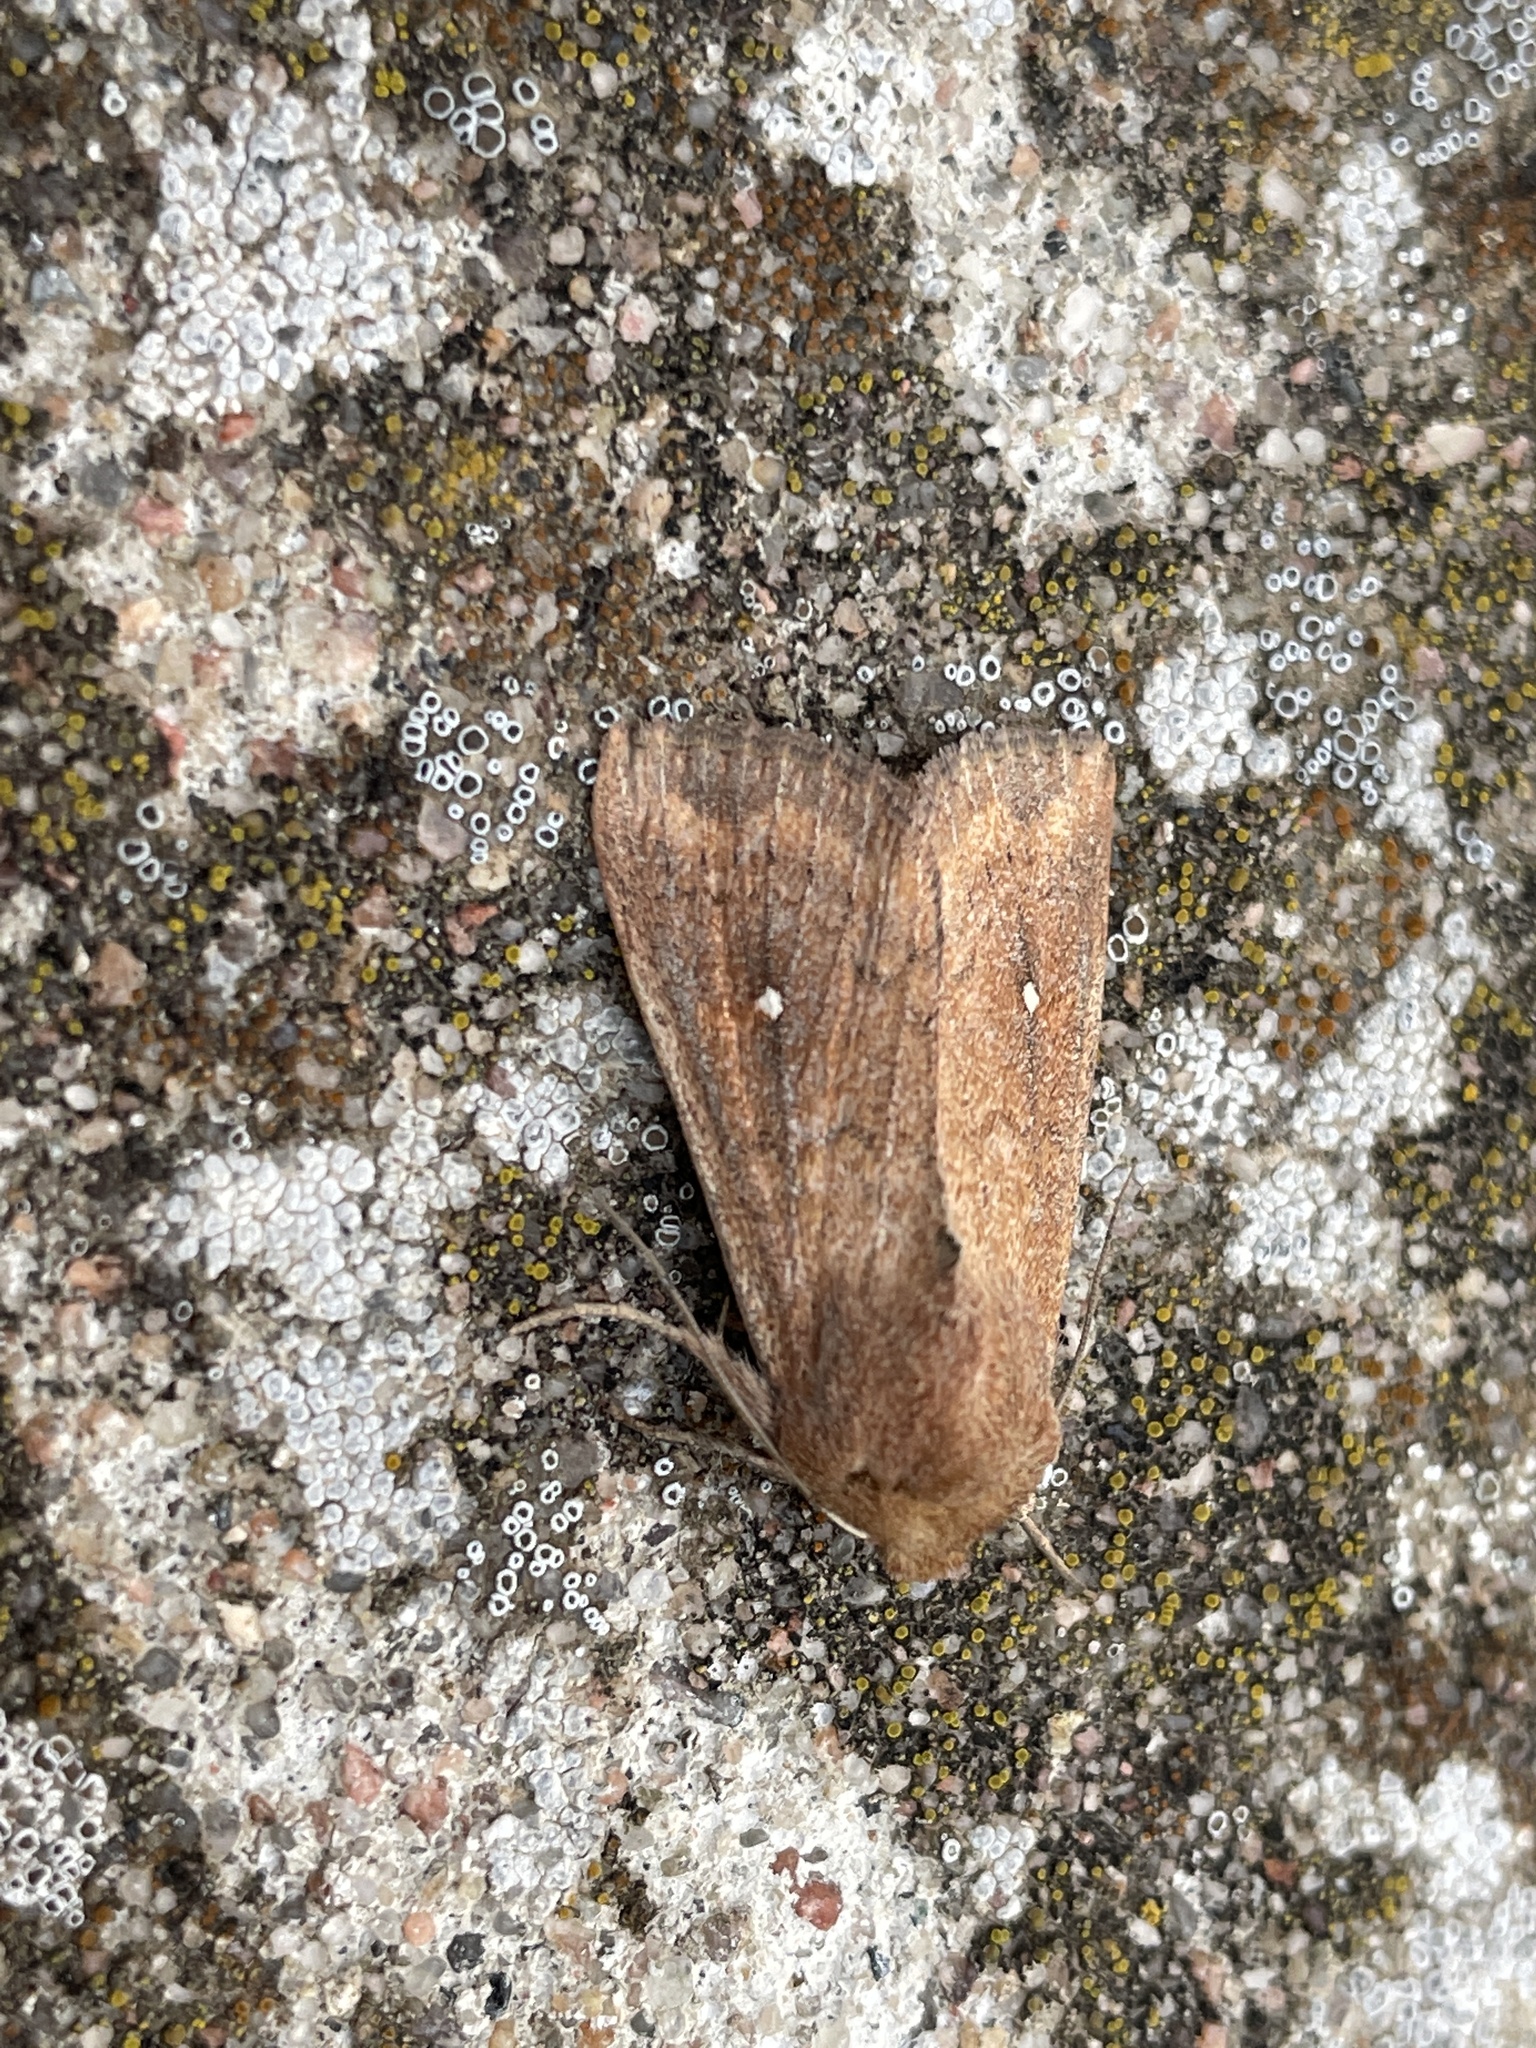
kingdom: Animalia
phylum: Arthropoda
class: Insecta
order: Lepidoptera
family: Noctuidae
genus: Mythimna
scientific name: Mythimna albipuncta
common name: White-point
